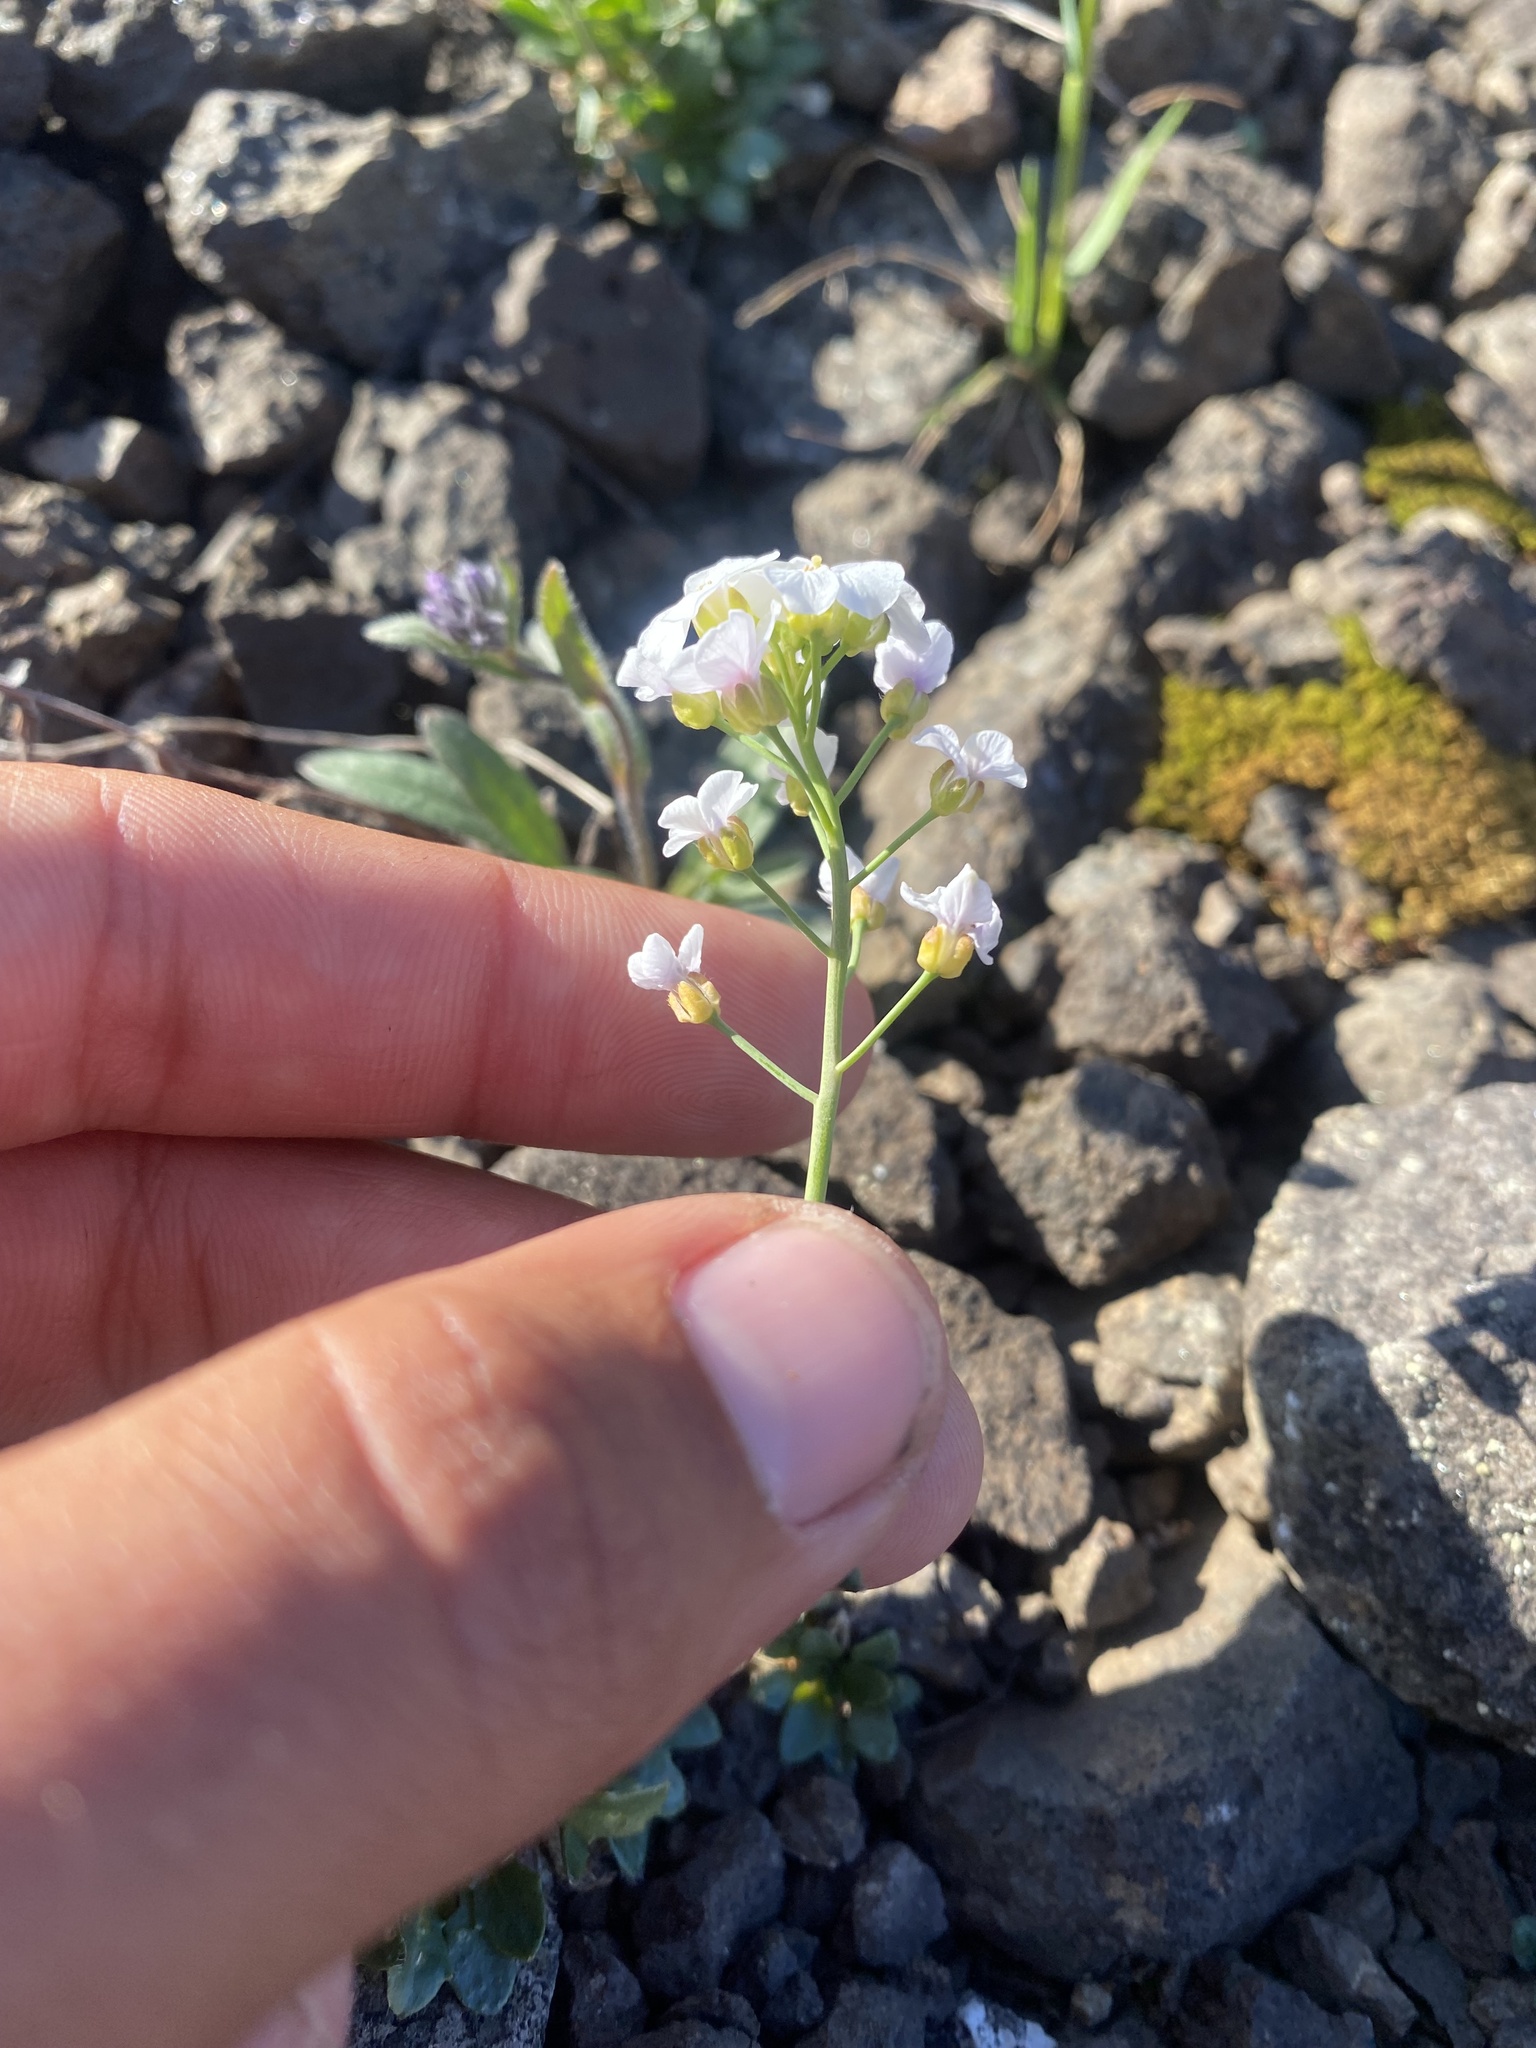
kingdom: Plantae
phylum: Tracheophyta
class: Magnoliopsida
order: Brassicales
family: Brassicaceae
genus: Arabidopsis
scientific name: Arabidopsis lyrata
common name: Lyrate rockcress
